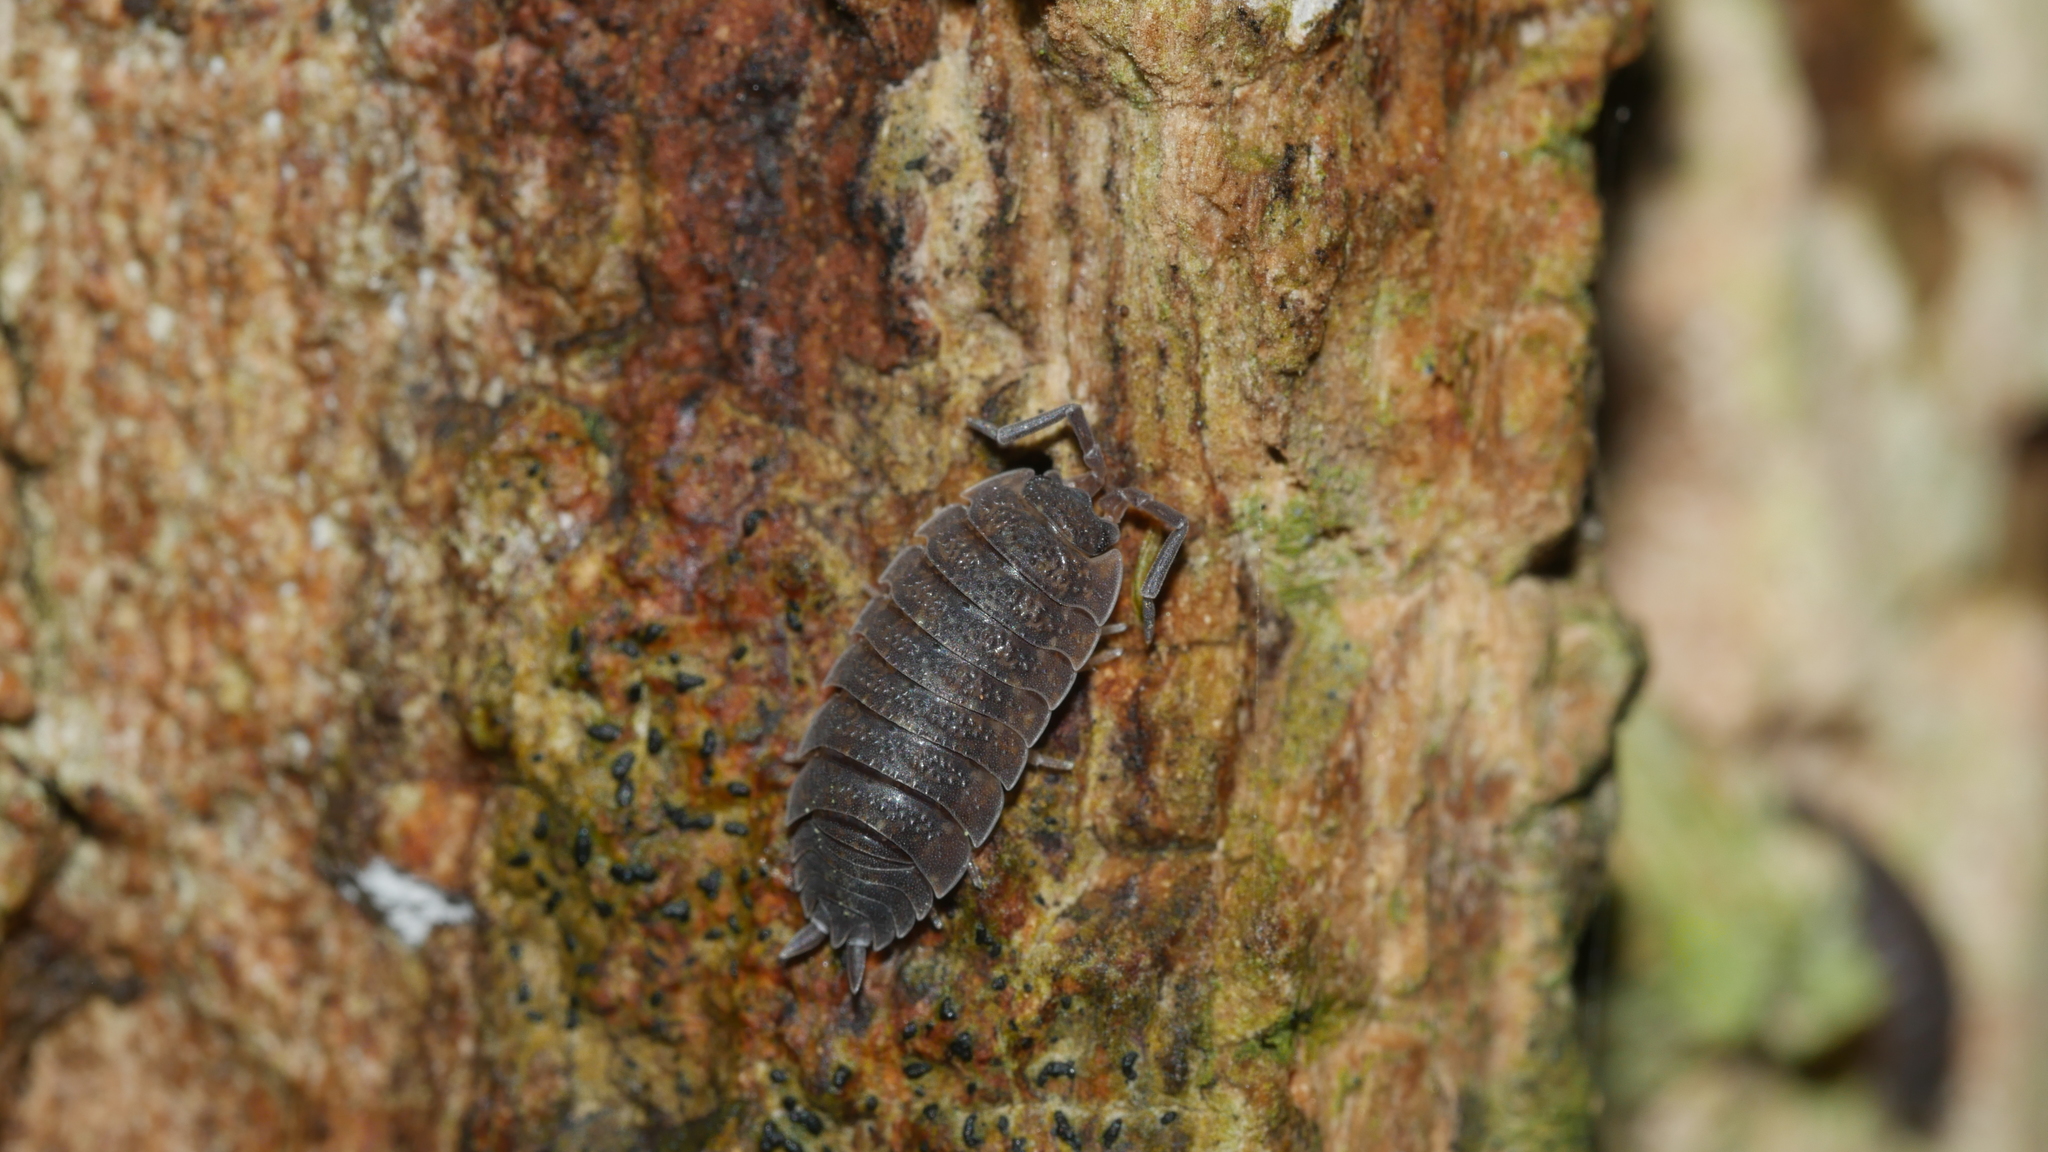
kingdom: Animalia
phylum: Arthropoda
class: Malacostraca
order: Isopoda
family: Porcellionidae
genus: Porcellio
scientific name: Porcellio scaber
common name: Common rough woodlouse
